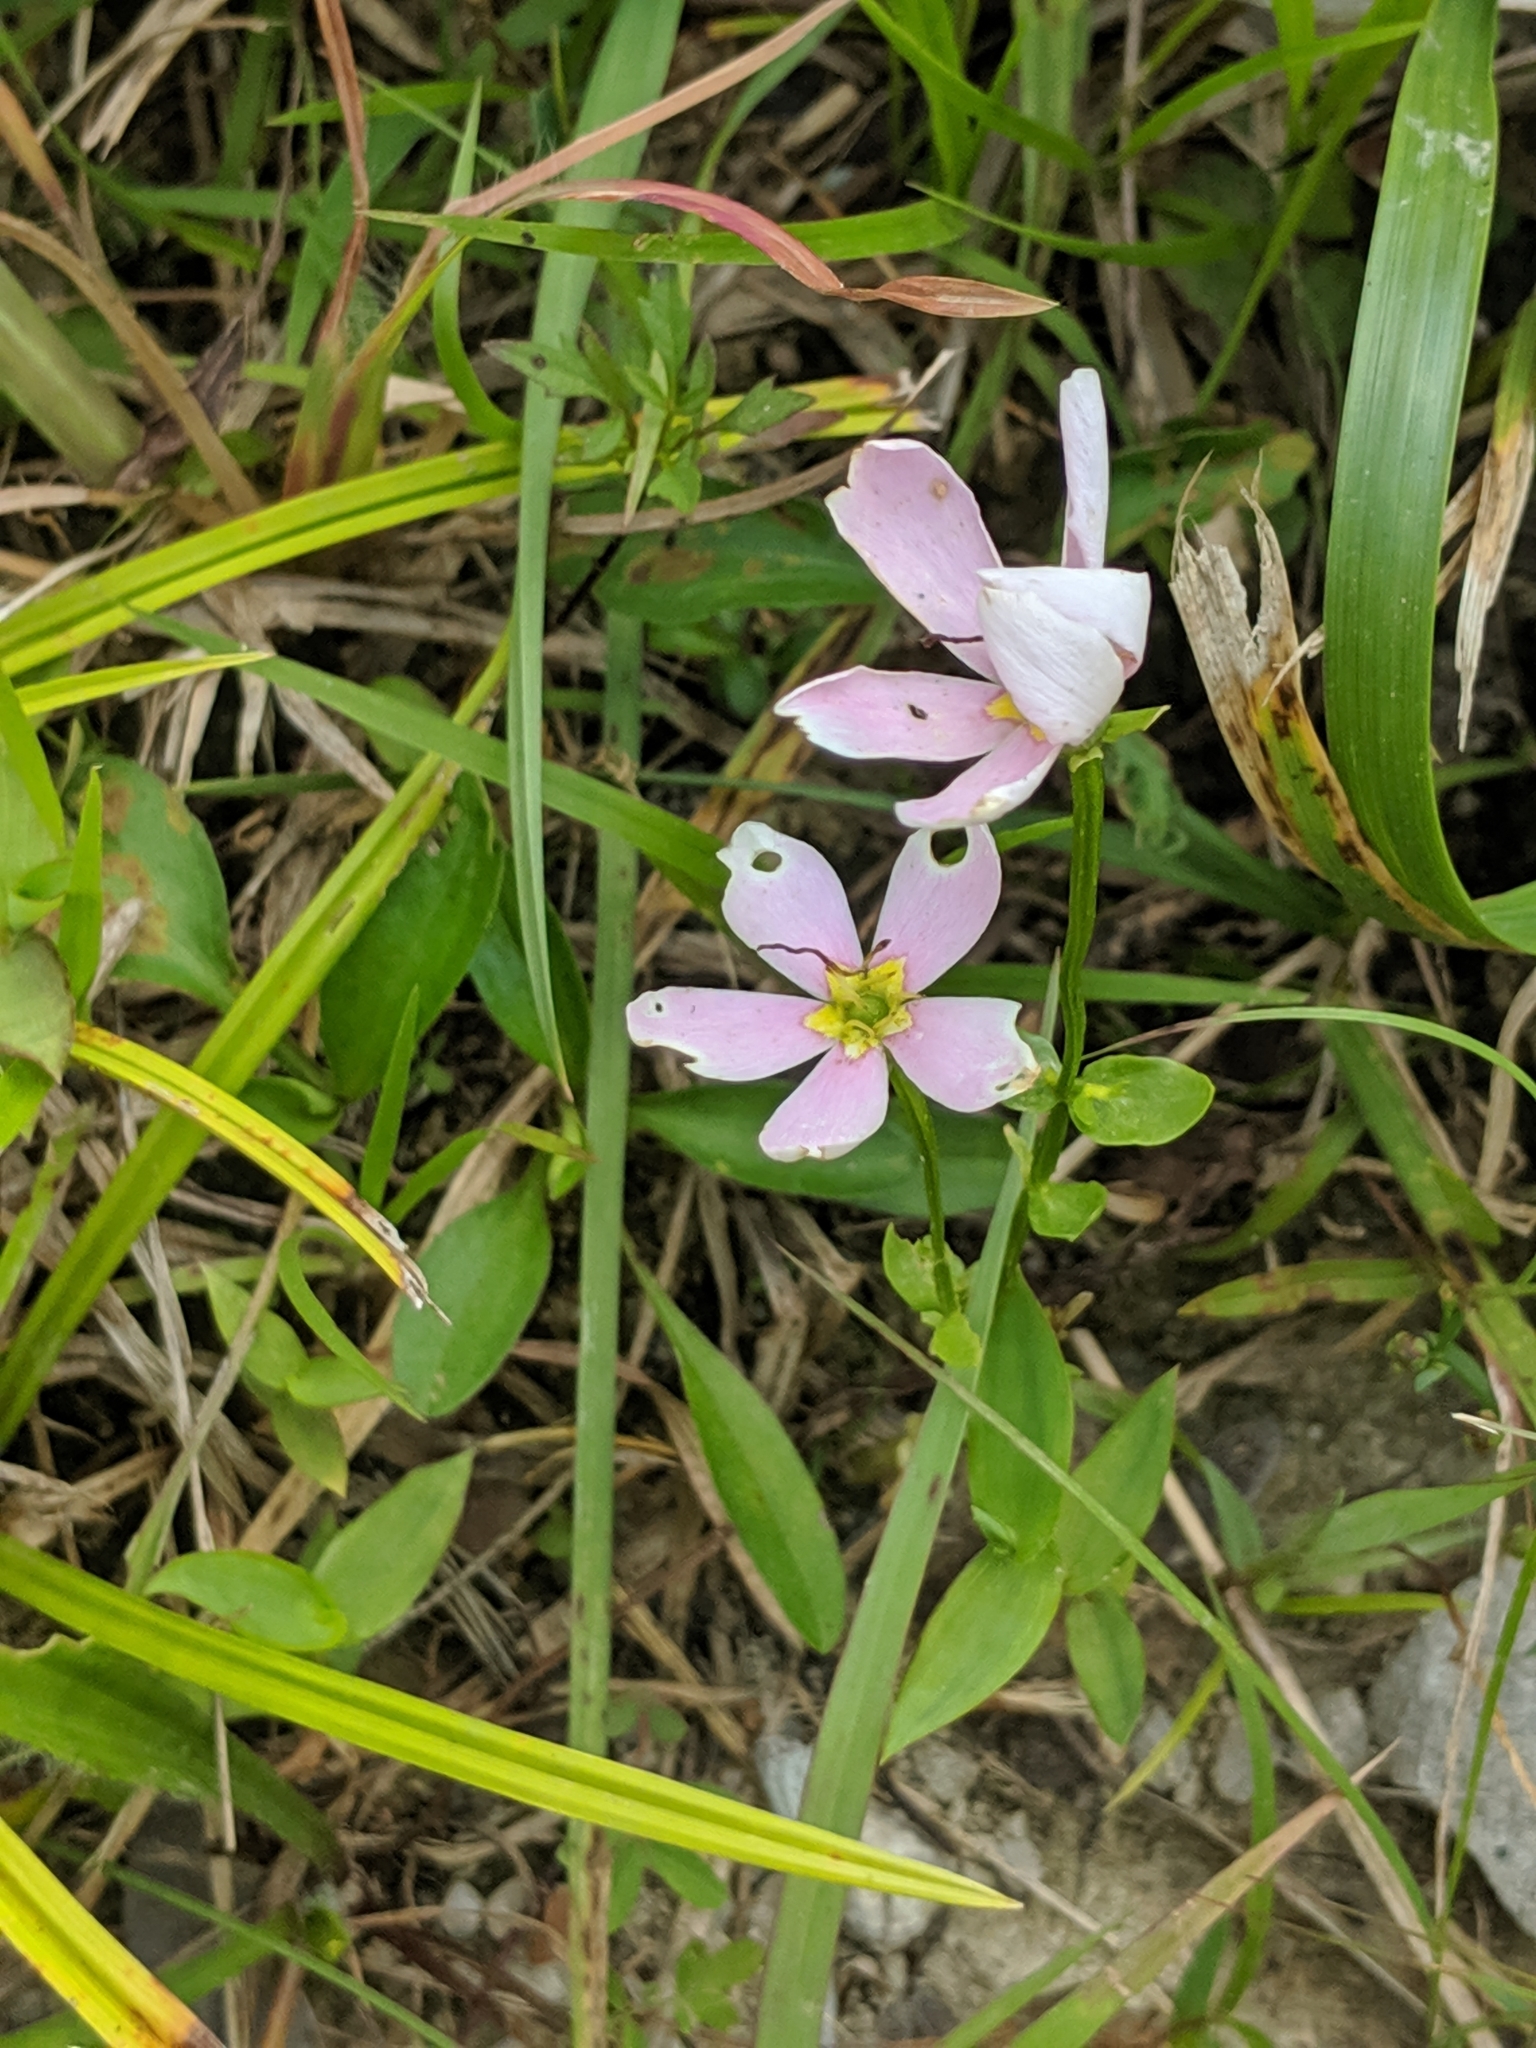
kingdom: Plantae
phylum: Tracheophyta
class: Magnoliopsida
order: Gentianales
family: Gentianaceae
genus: Sabatia
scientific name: Sabatia angularis
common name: Rose-pink
